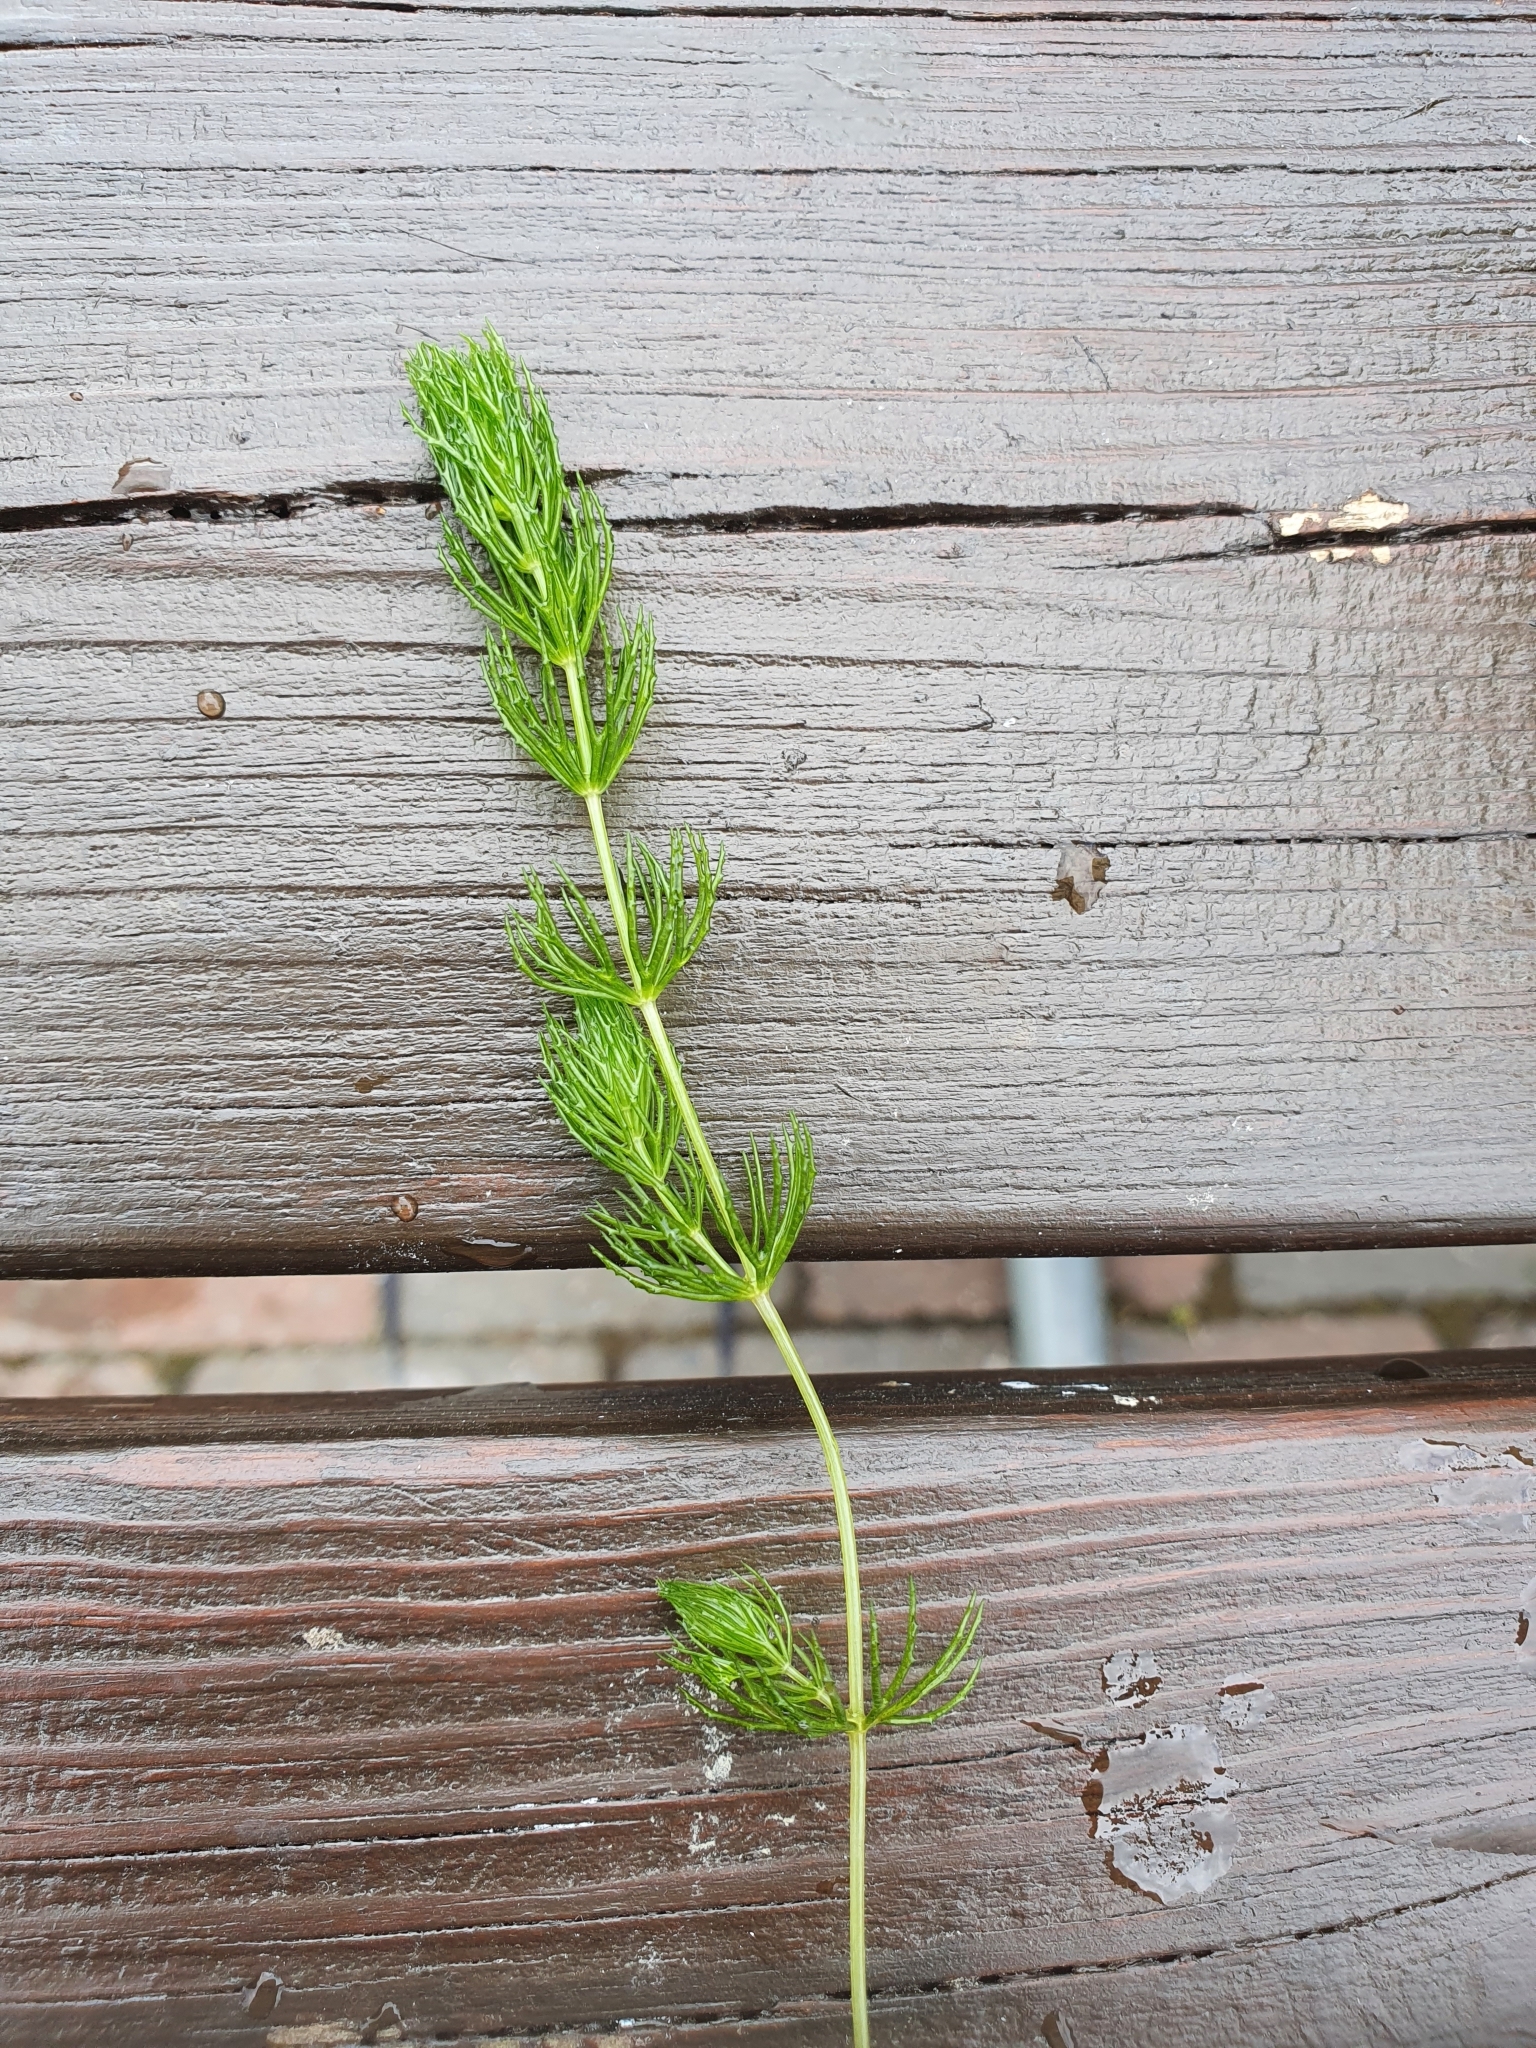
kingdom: Plantae
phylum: Tracheophyta
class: Magnoliopsida
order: Ceratophyllales
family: Ceratophyllaceae
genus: Ceratophyllum
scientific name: Ceratophyllum demersum
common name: Rigid hornwort
